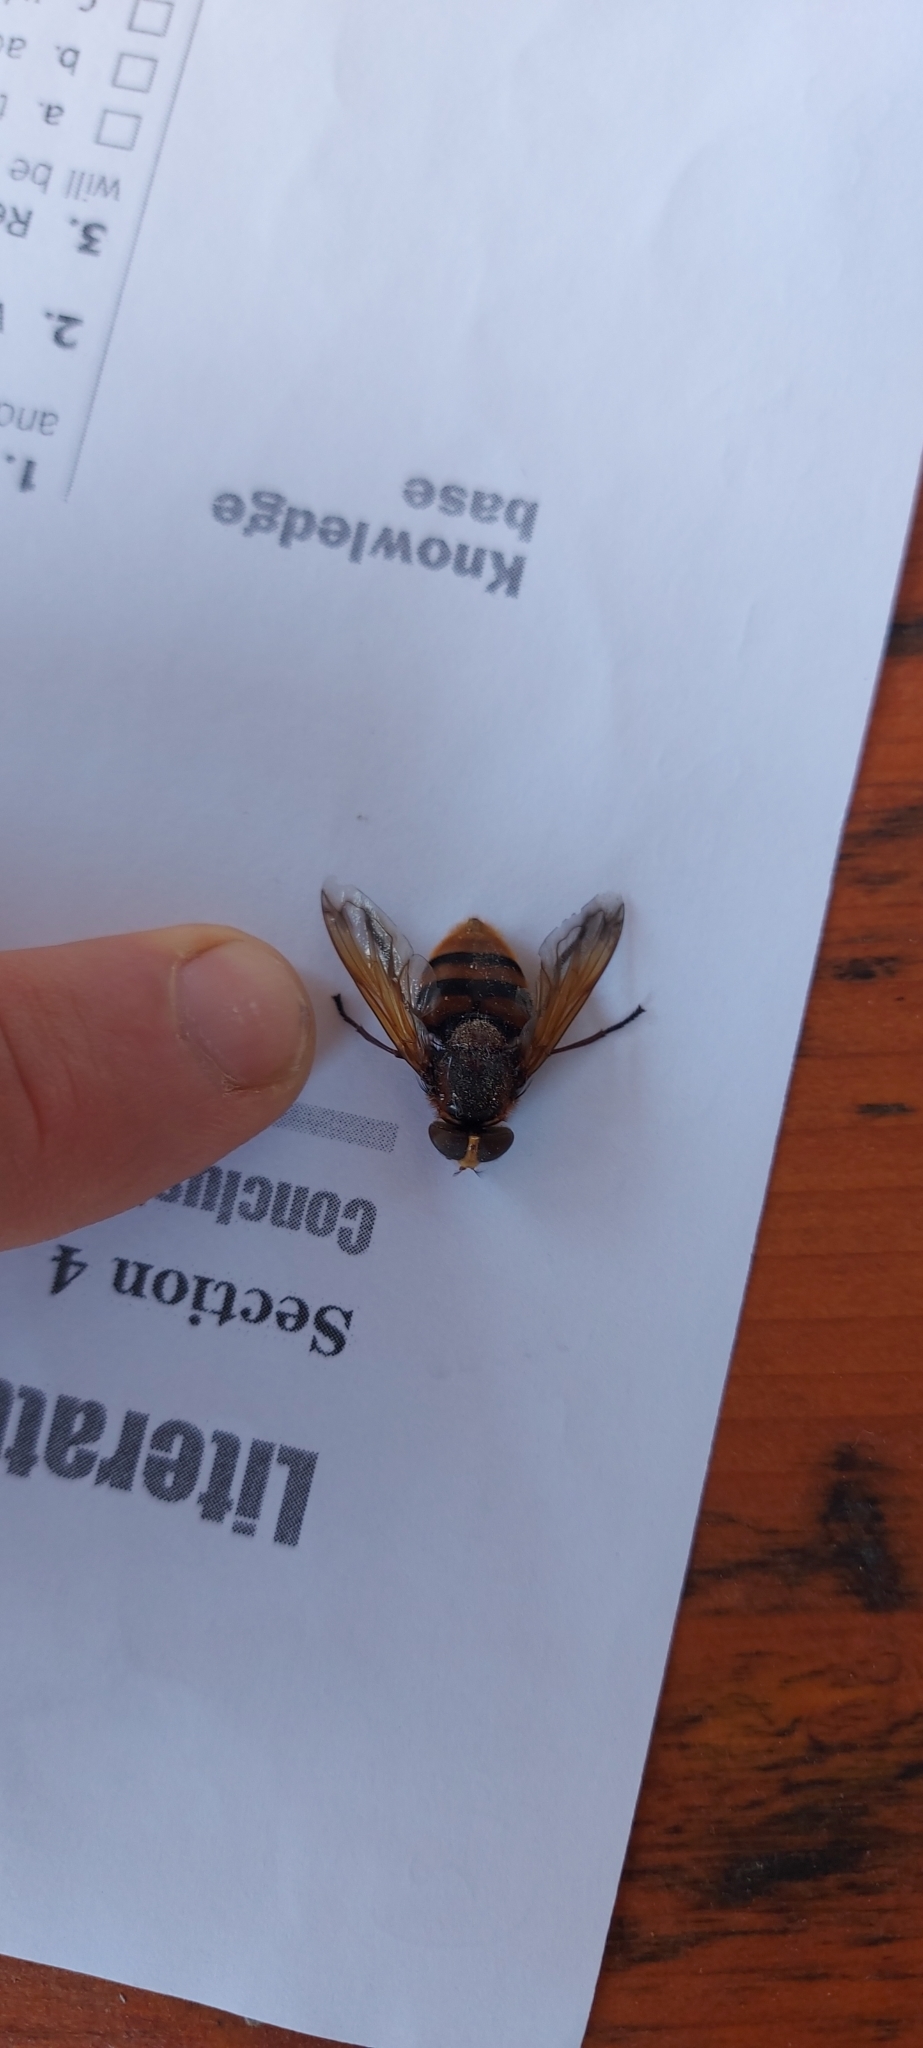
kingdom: Animalia
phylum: Arthropoda
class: Insecta
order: Diptera
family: Syrphidae
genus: Volucella
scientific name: Volucella zonaria
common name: Hornet hoverfly
